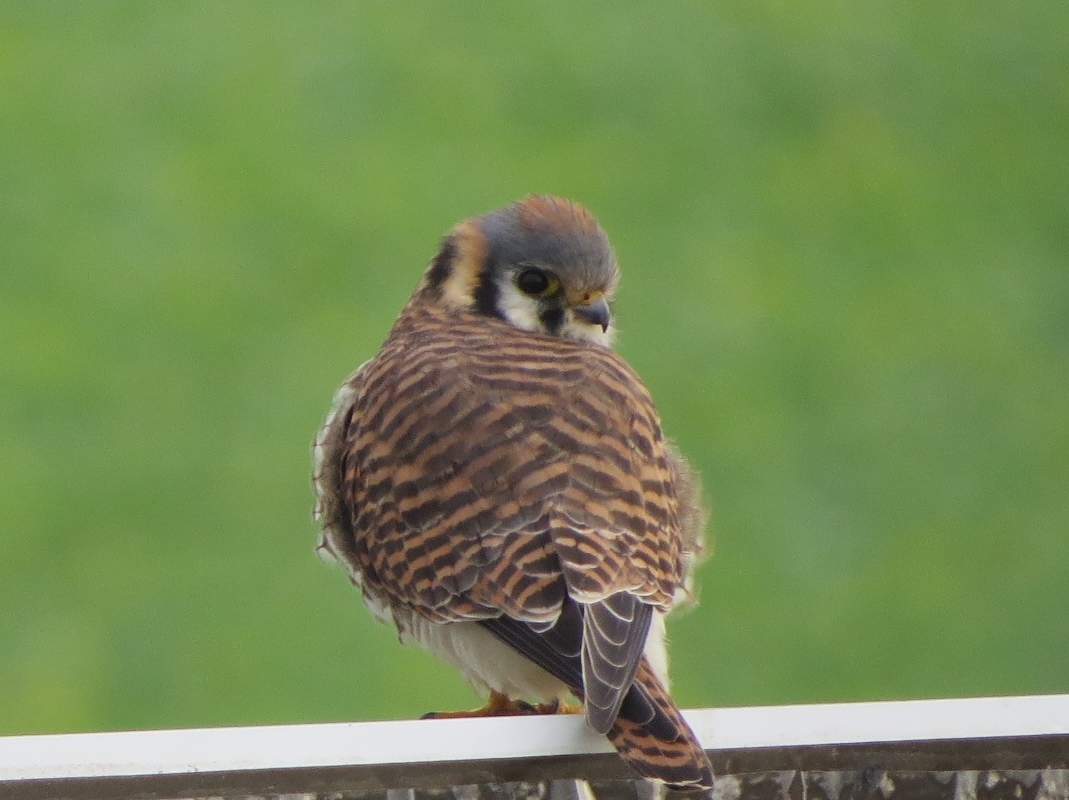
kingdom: Animalia
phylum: Chordata
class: Aves
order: Falconiformes
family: Falconidae
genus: Falco
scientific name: Falco sparverius
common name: American kestrel
